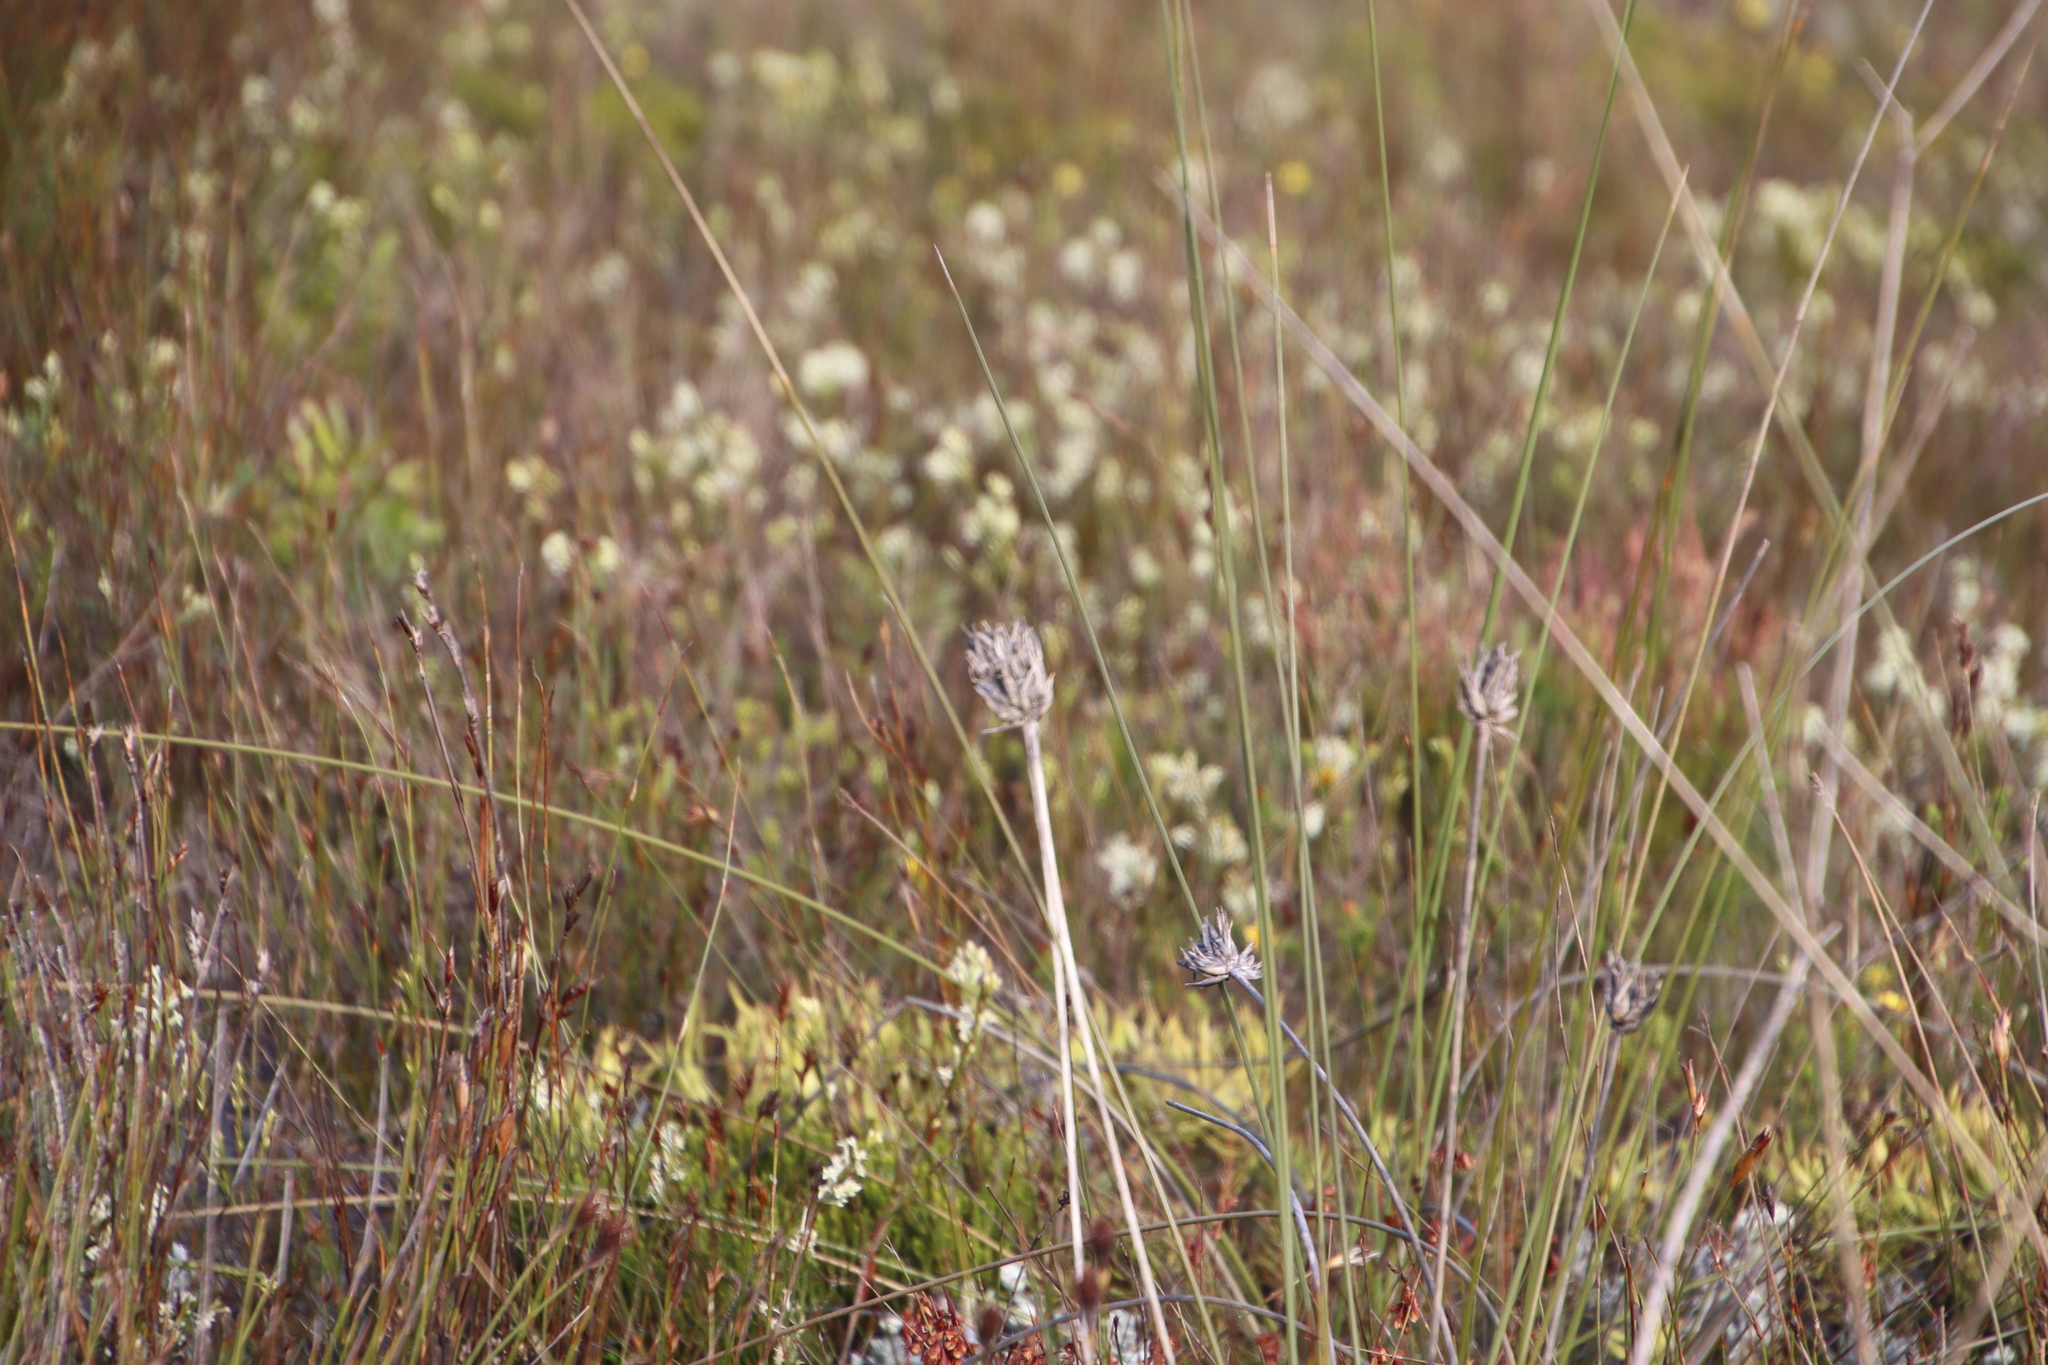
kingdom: Plantae
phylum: Tracheophyta
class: Liliopsida
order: Asparagales
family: Iridaceae
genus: Bobartia
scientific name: Bobartia indica
